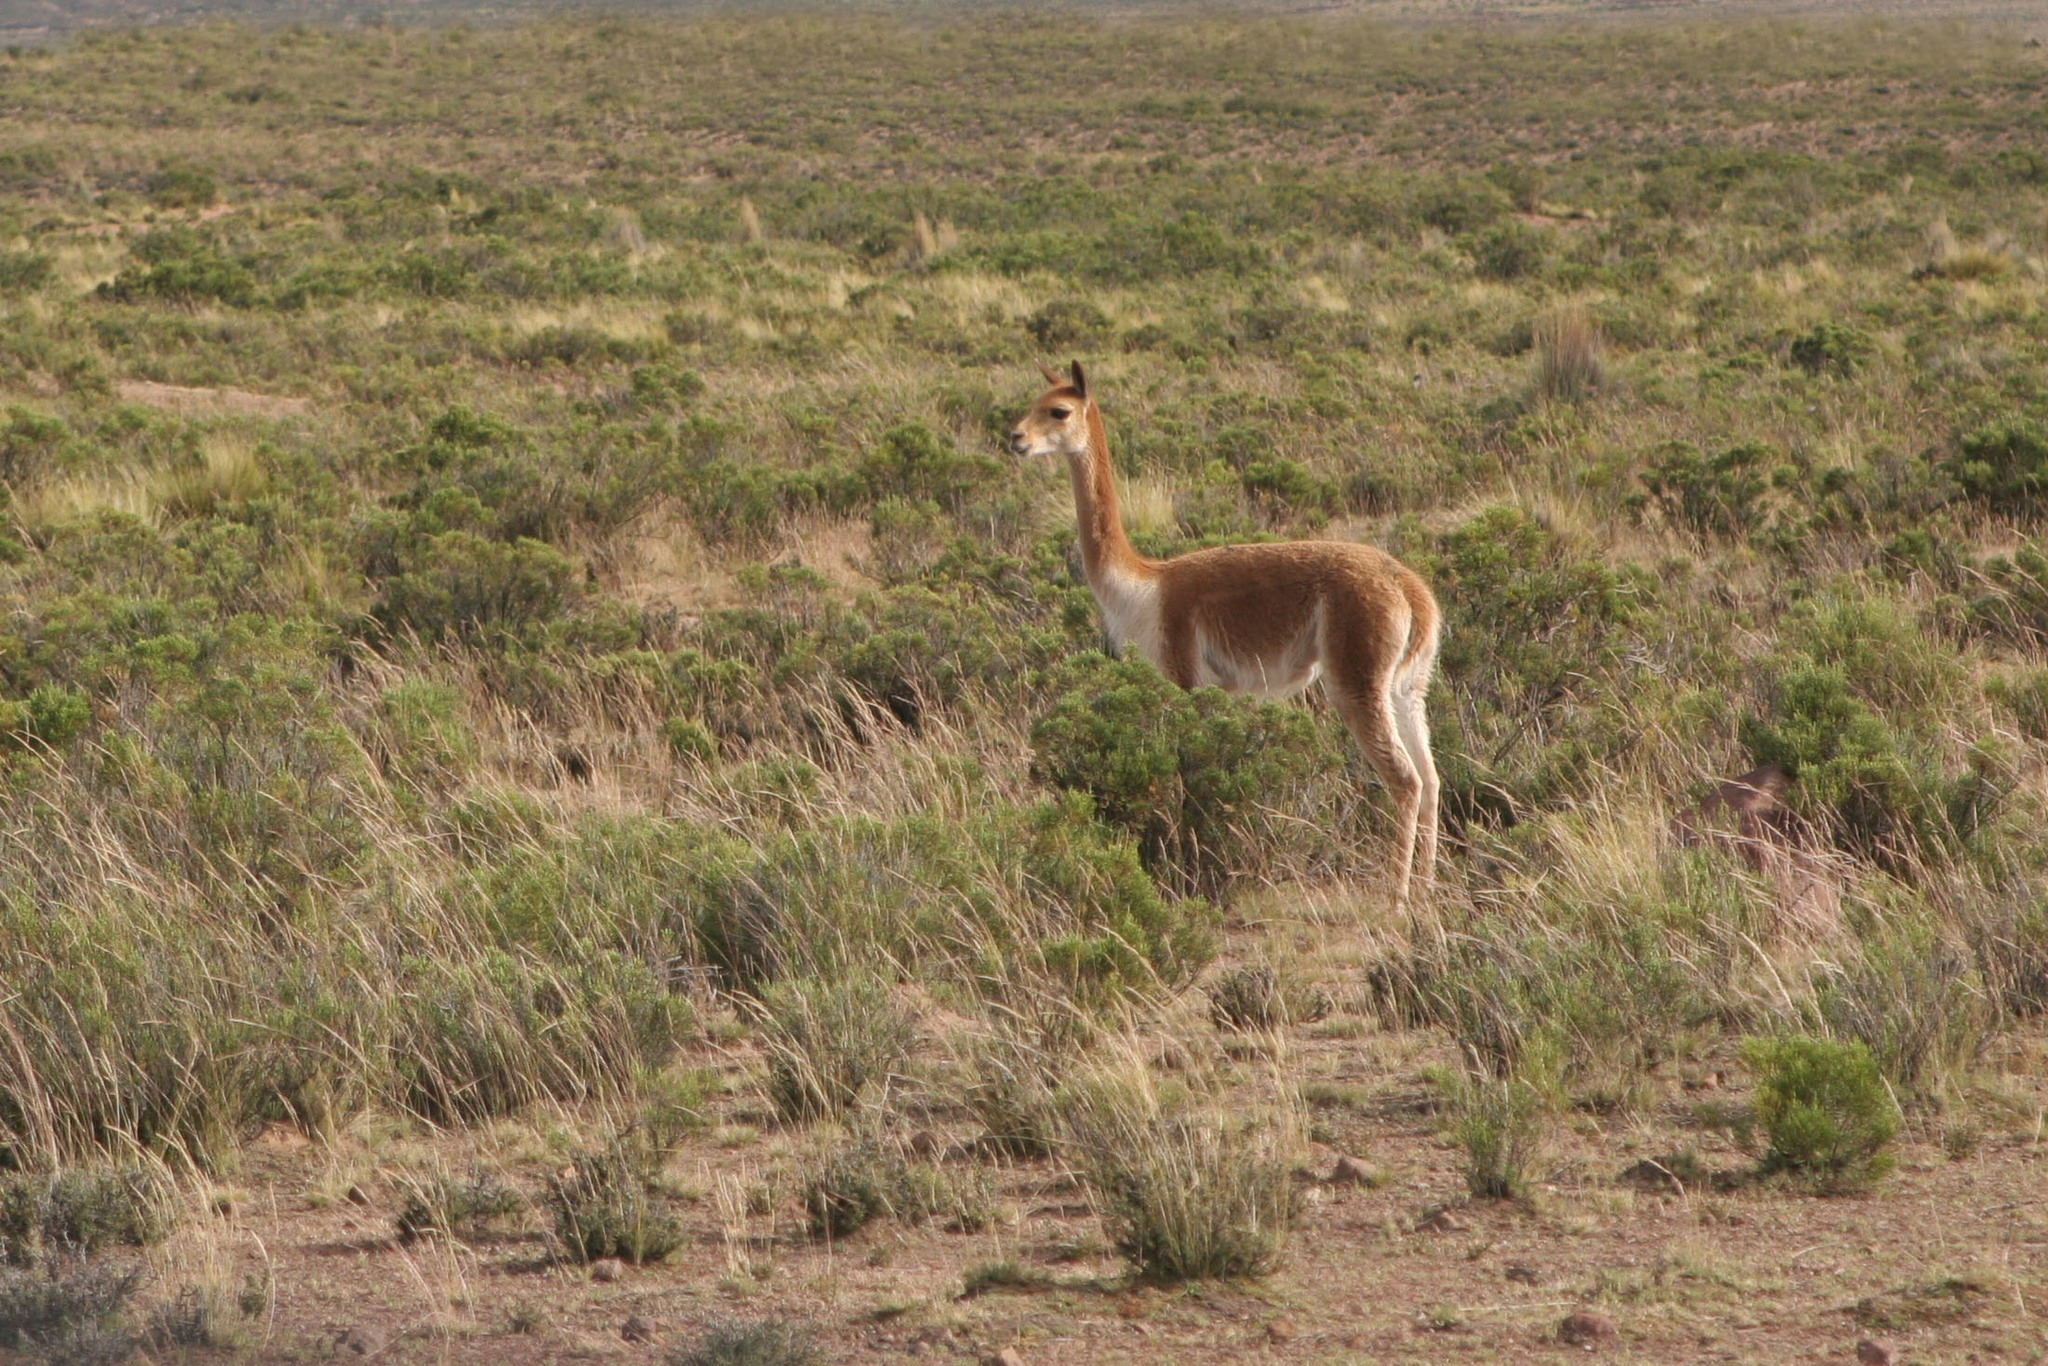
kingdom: Animalia
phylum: Chordata
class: Mammalia
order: Artiodactyla
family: Camelidae
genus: Vicugna
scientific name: Vicugna vicugna
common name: Vicugna
